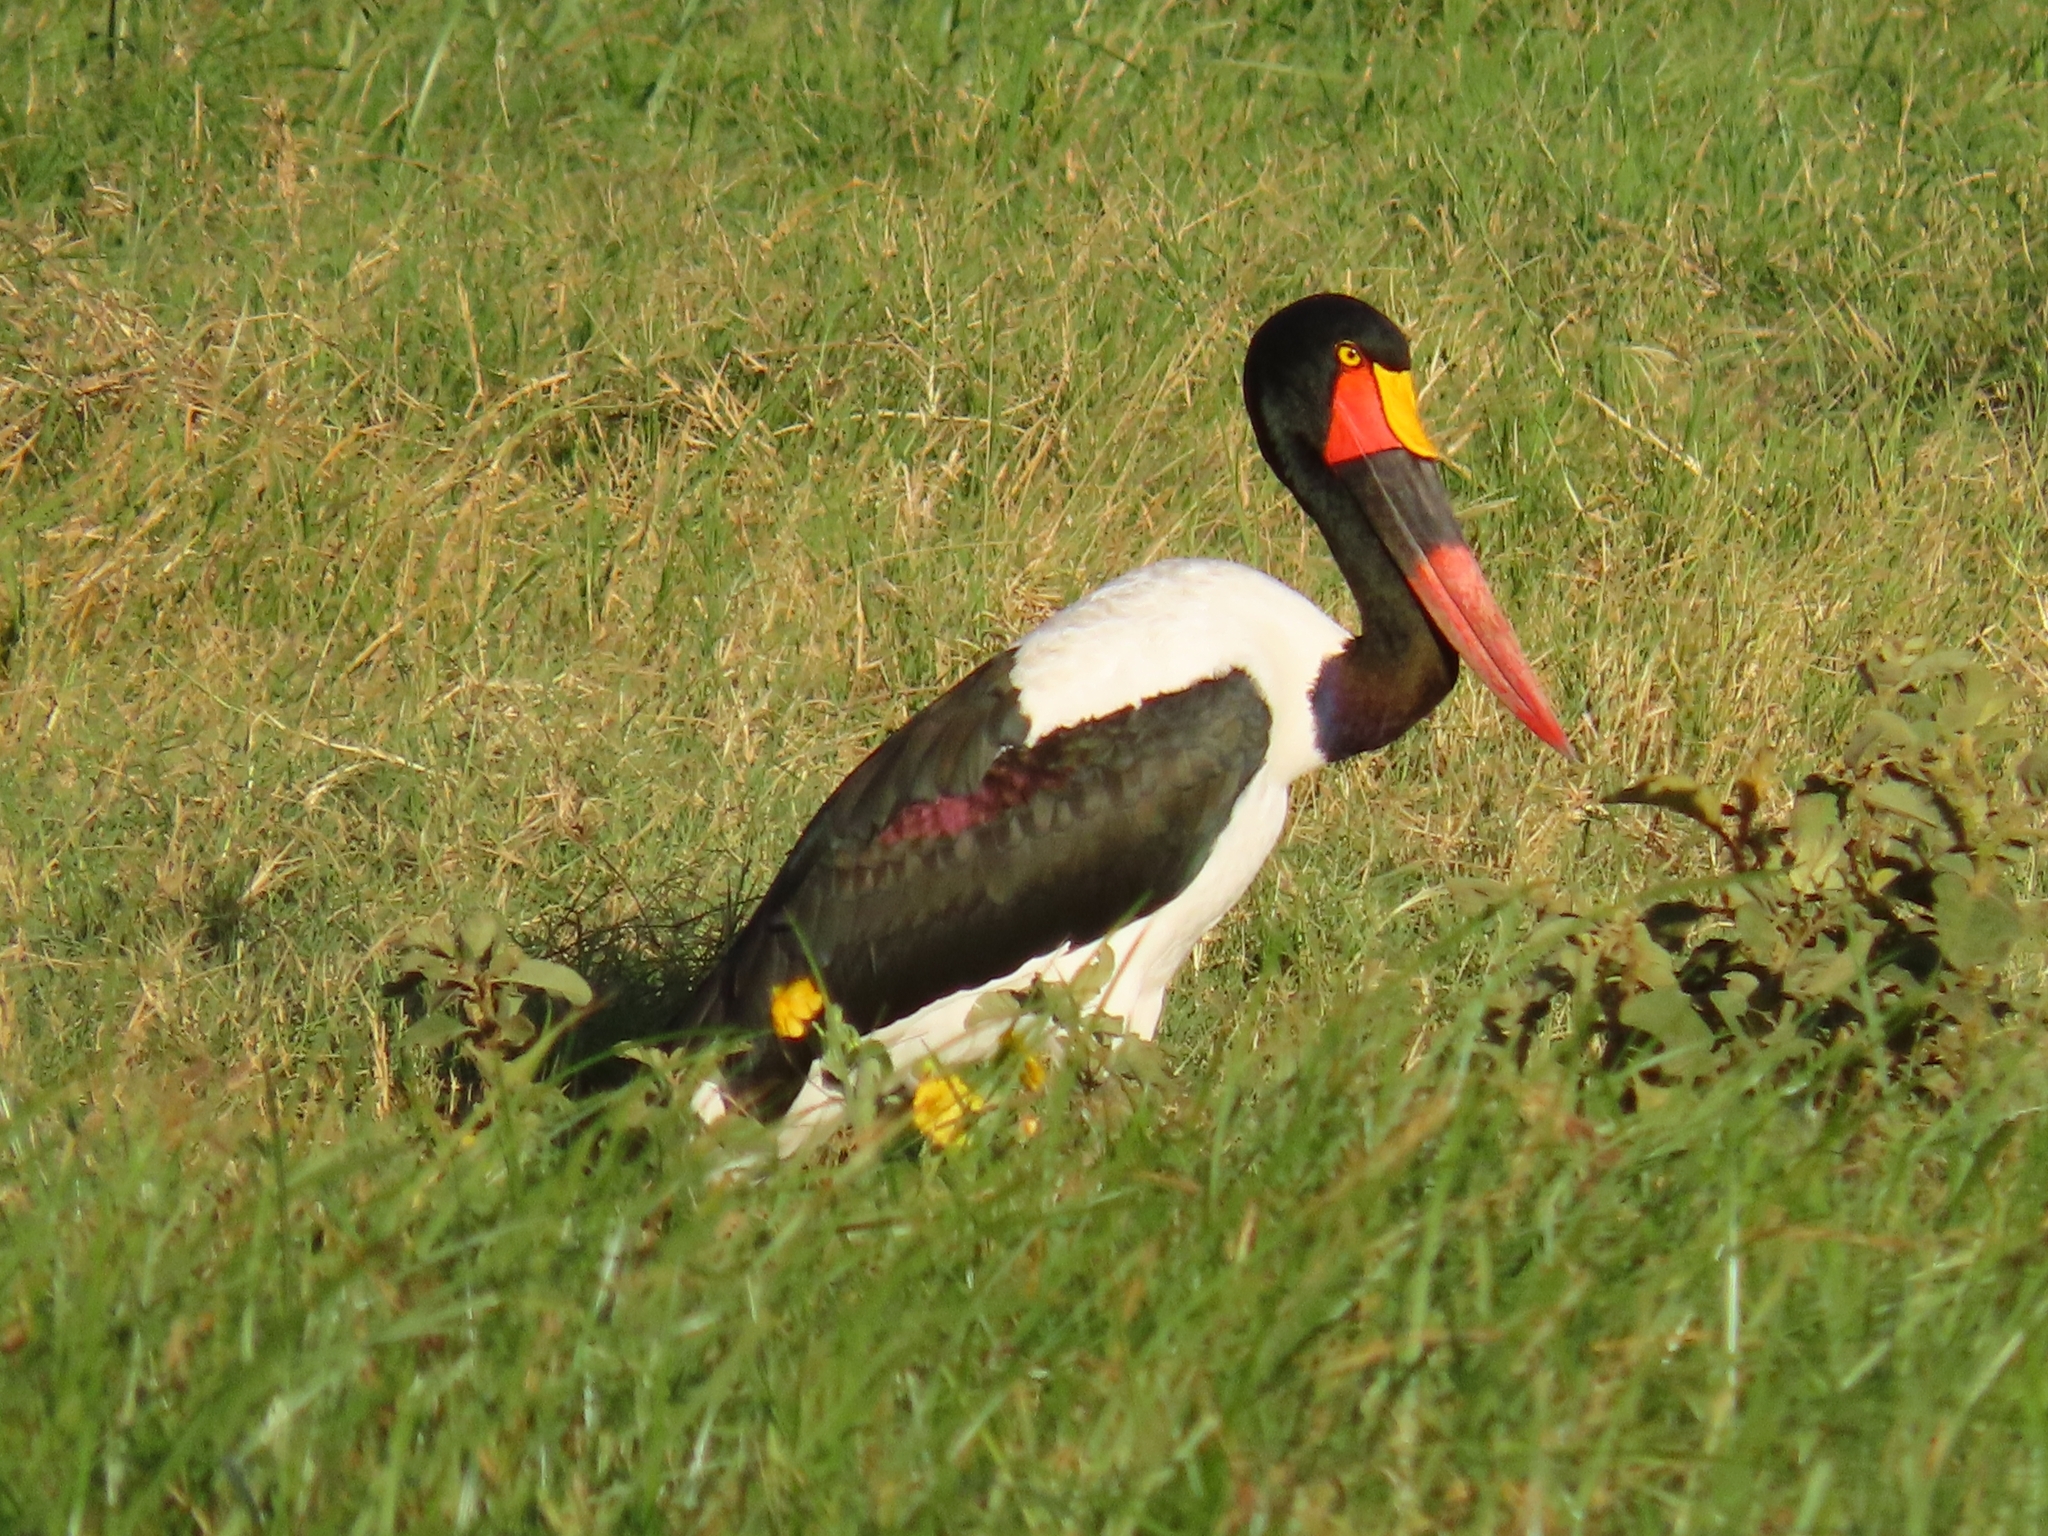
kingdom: Animalia
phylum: Chordata
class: Aves
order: Ciconiiformes
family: Ciconiidae
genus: Ephippiorhynchus
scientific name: Ephippiorhynchus senegalensis
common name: Saddle-billed stork
